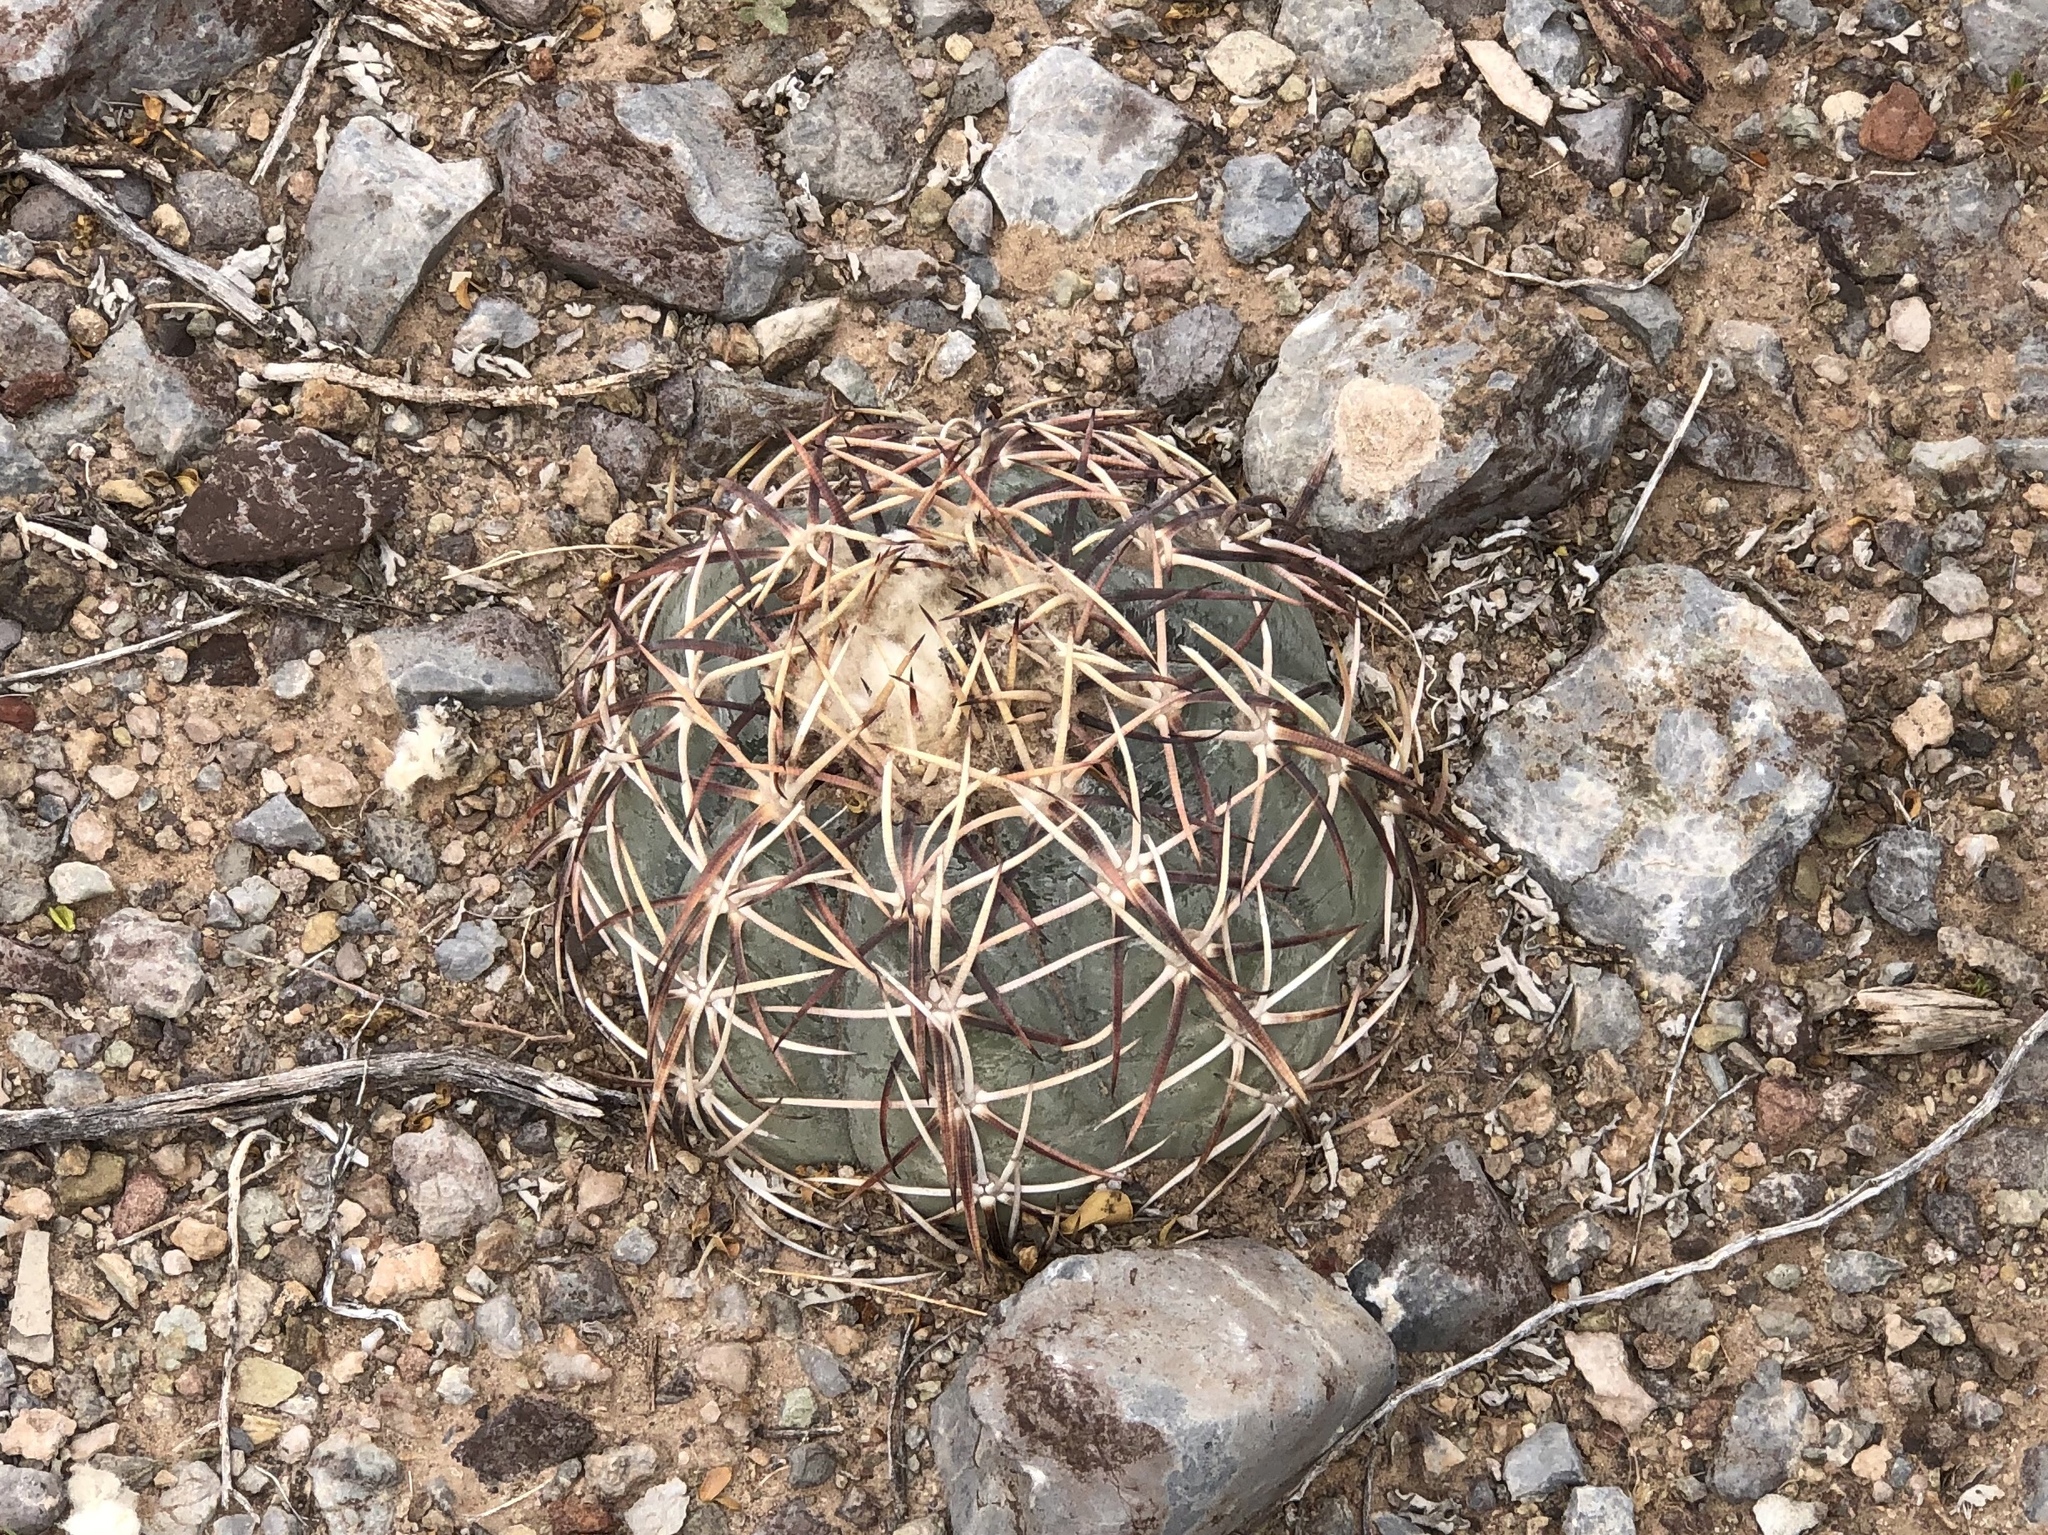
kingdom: Plantae
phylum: Tracheophyta
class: Magnoliopsida
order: Caryophyllales
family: Cactaceae
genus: Echinocactus
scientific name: Echinocactus horizonthalonius
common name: Devilshead
